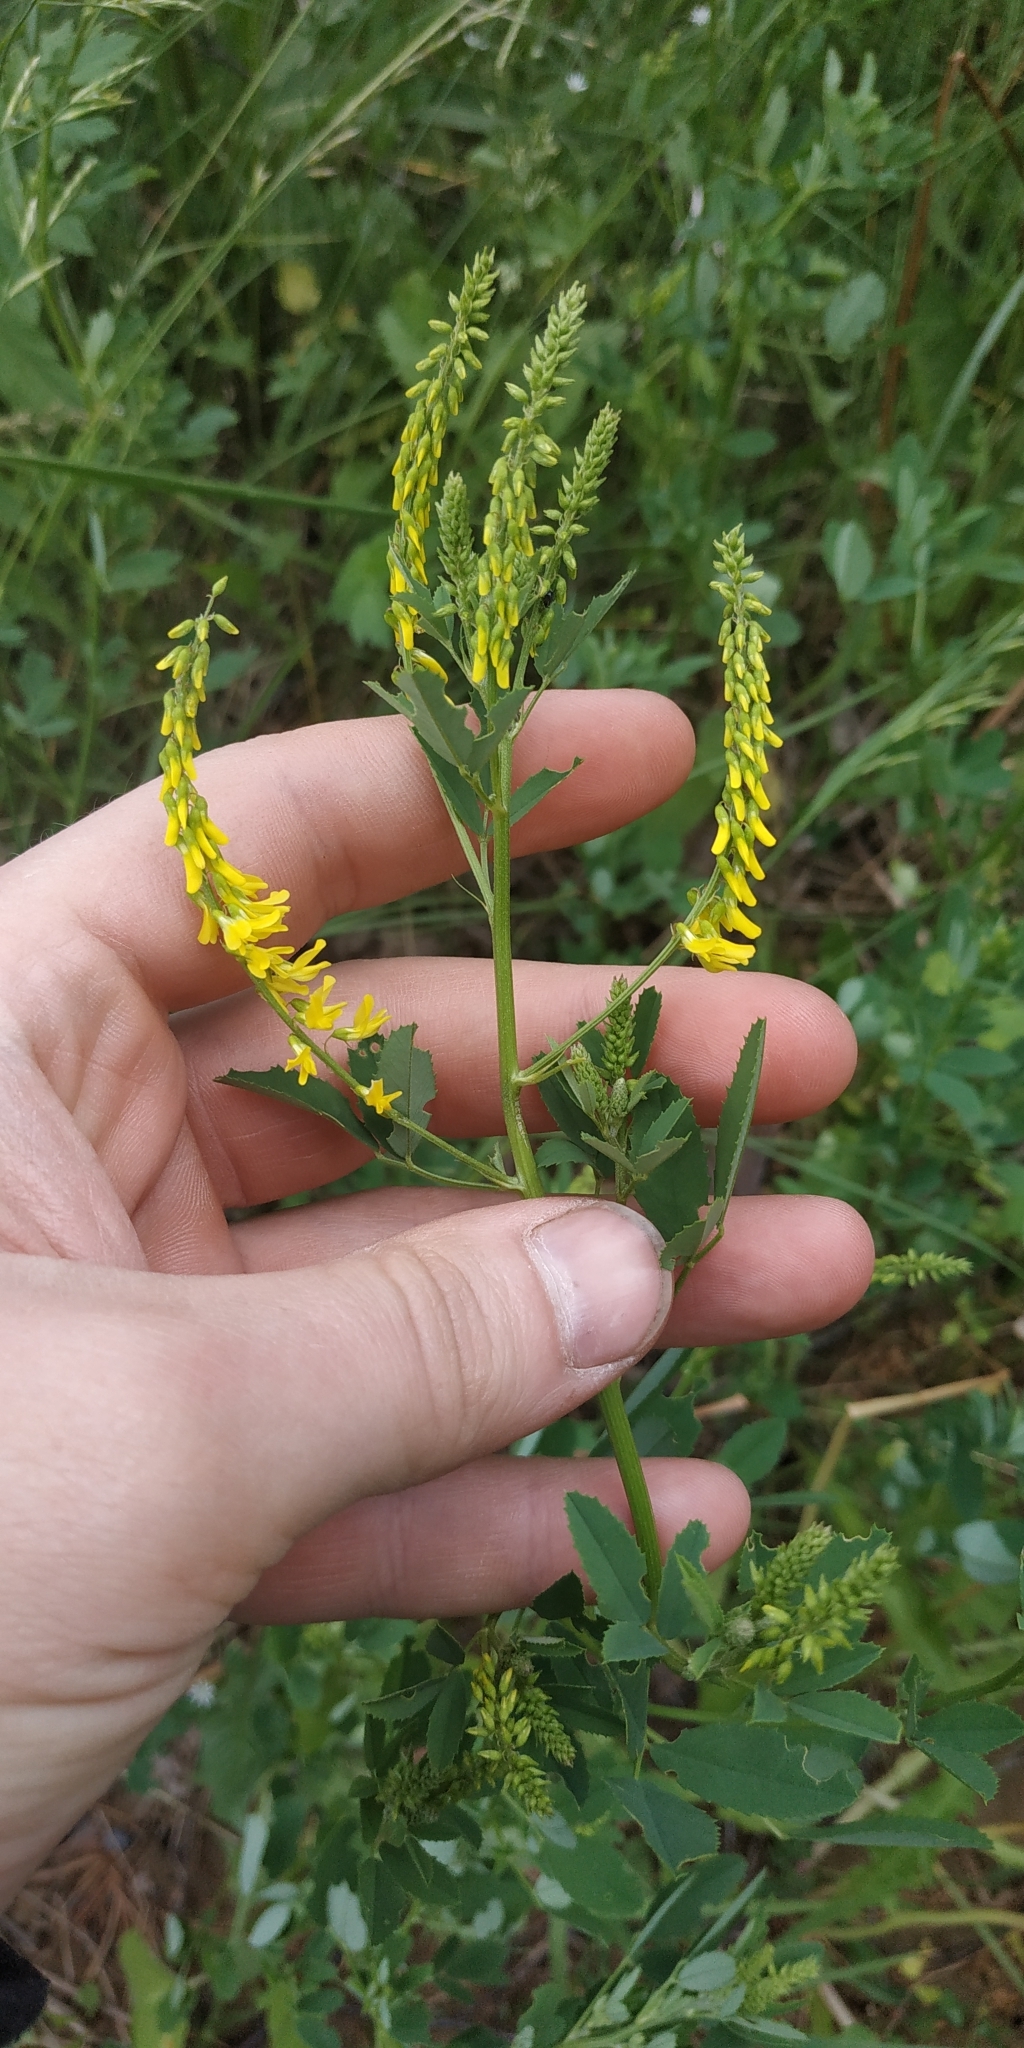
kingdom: Plantae
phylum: Tracheophyta
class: Magnoliopsida
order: Fabales
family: Fabaceae
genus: Melilotus
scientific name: Melilotus officinalis
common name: Sweetclover
